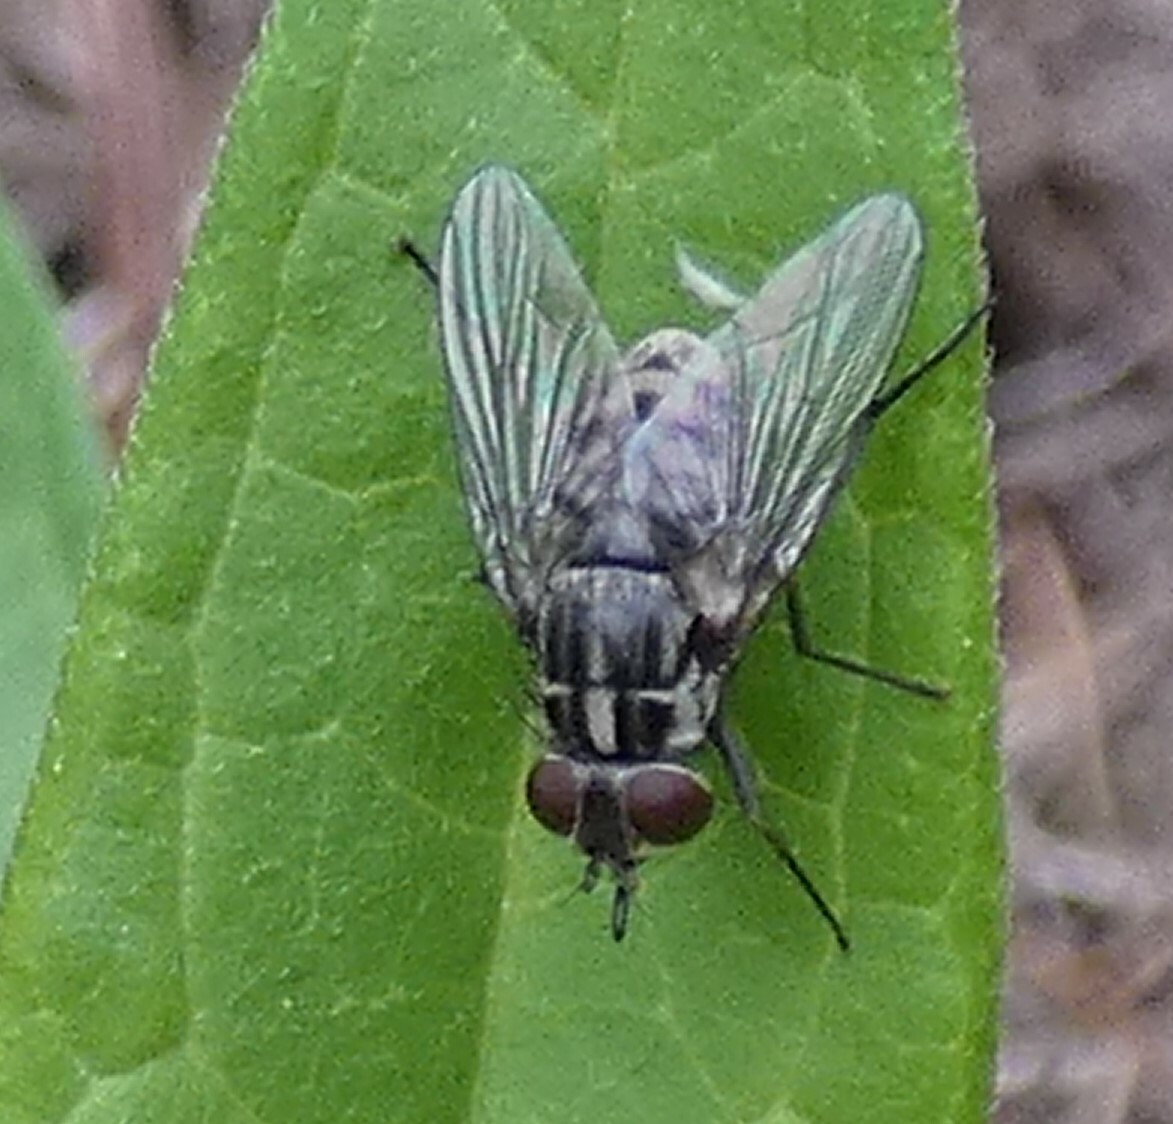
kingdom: Animalia
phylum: Arthropoda
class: Insecta
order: Diptera
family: Muscidae
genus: Stomoxys
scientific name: Stomoxys calcitrans
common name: Stable fly
